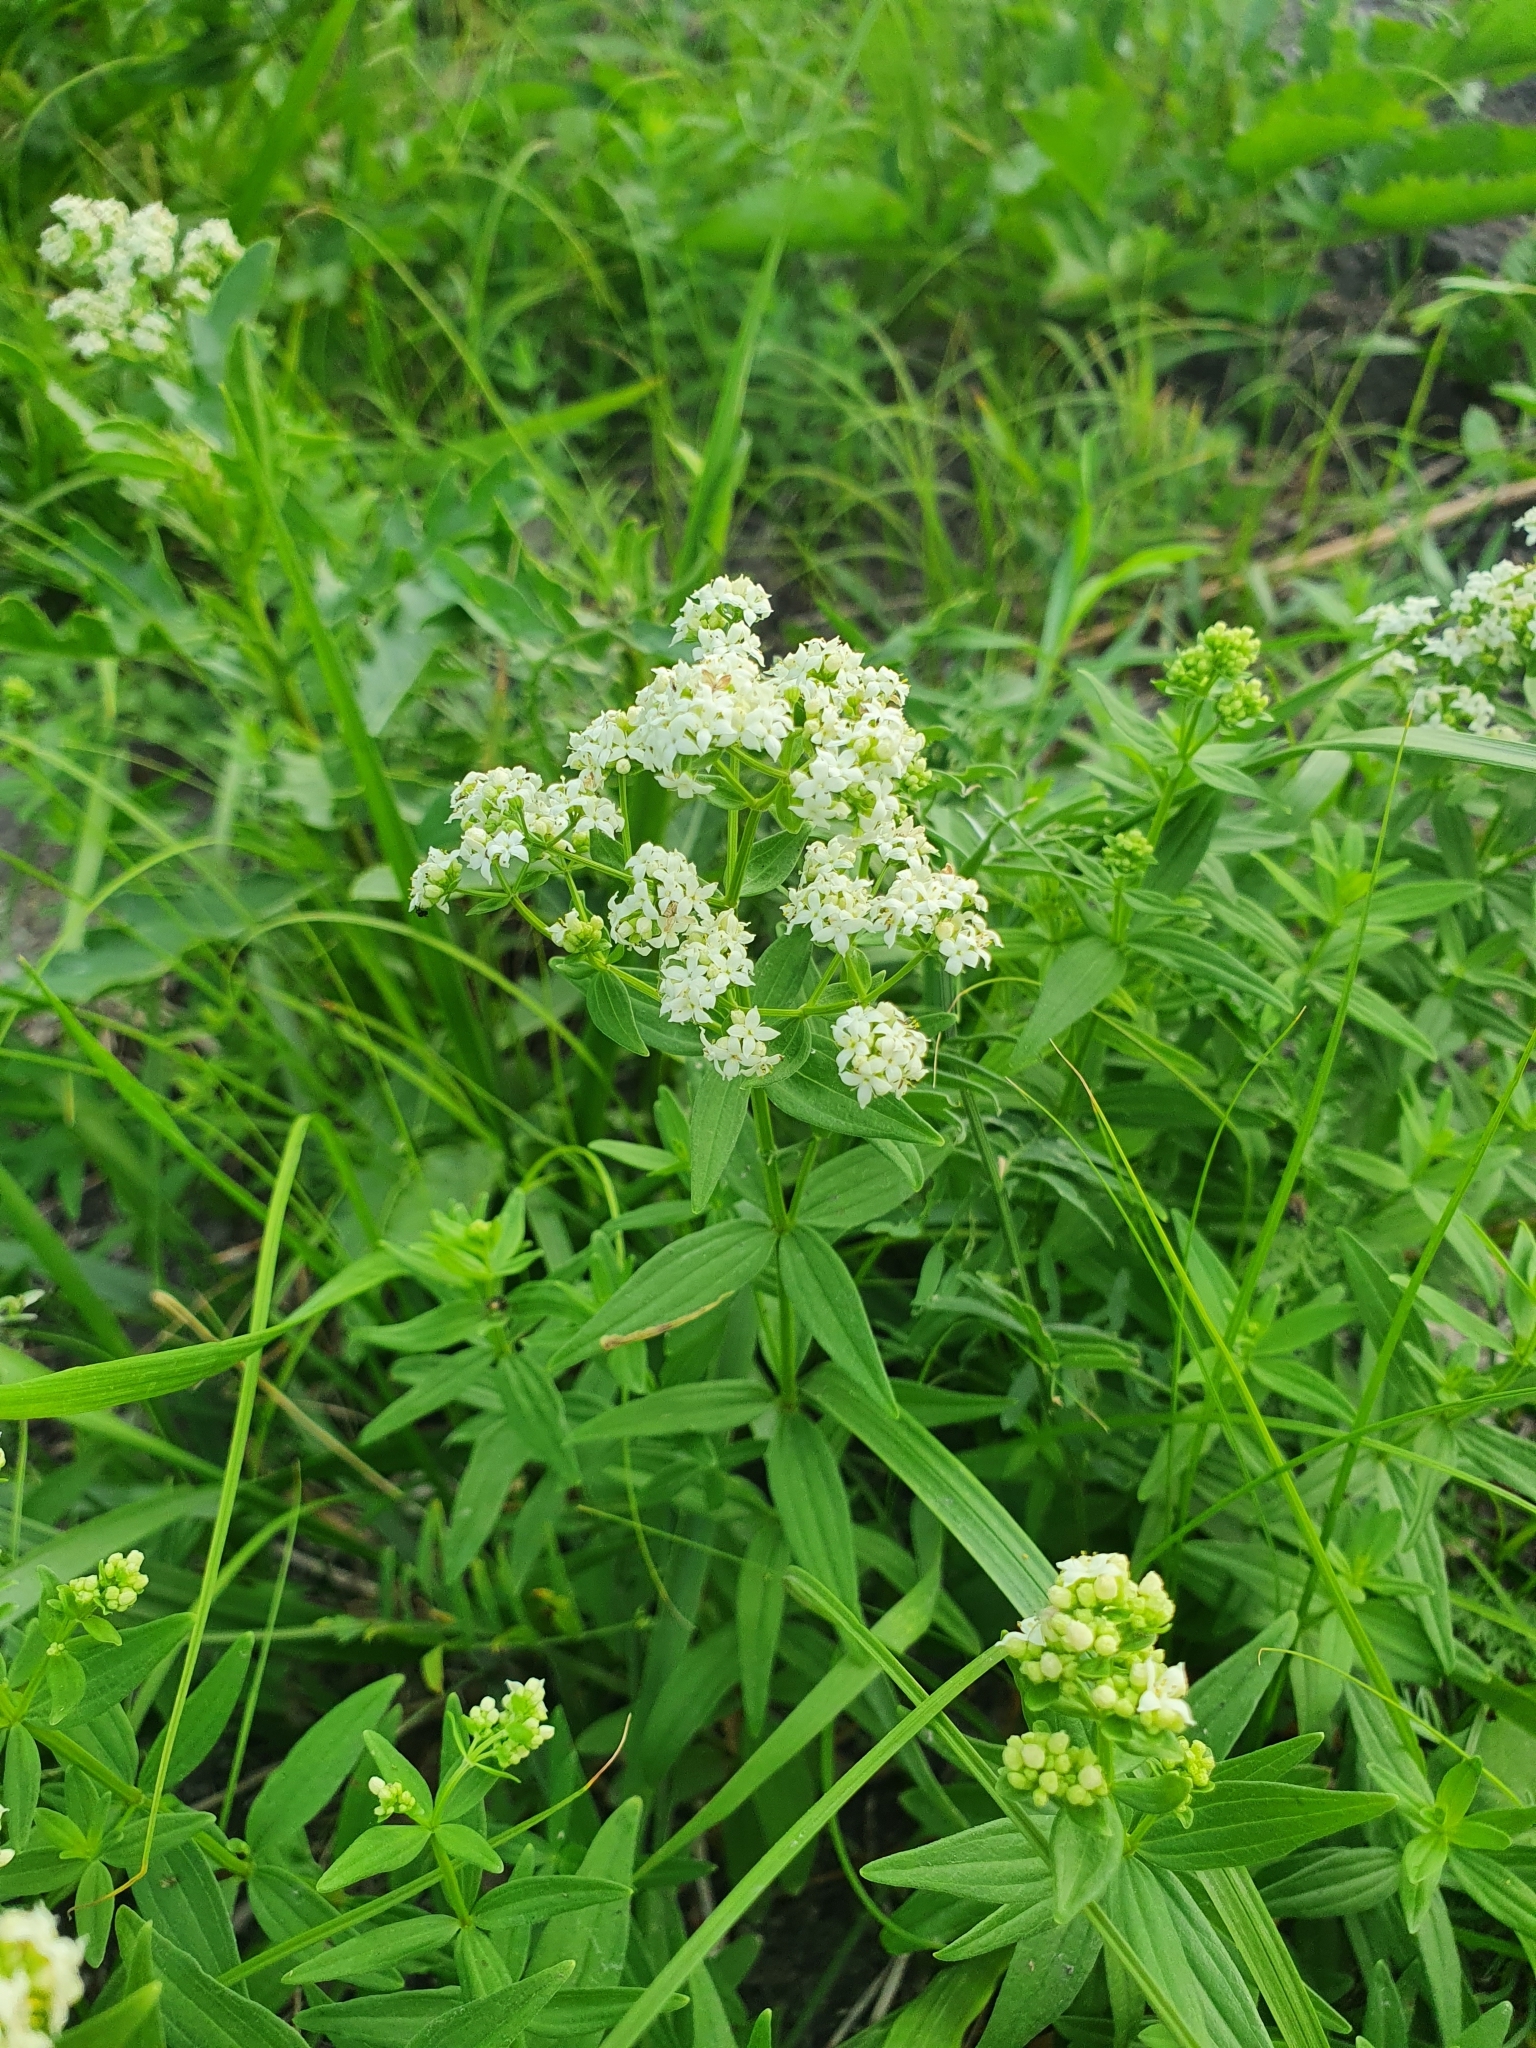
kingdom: Plantae
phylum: Tracheophyta
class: Magnoliopsida
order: Gentianales
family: Rubiaceae
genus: Galium
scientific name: Galium boreale
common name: Northern bedstraw
